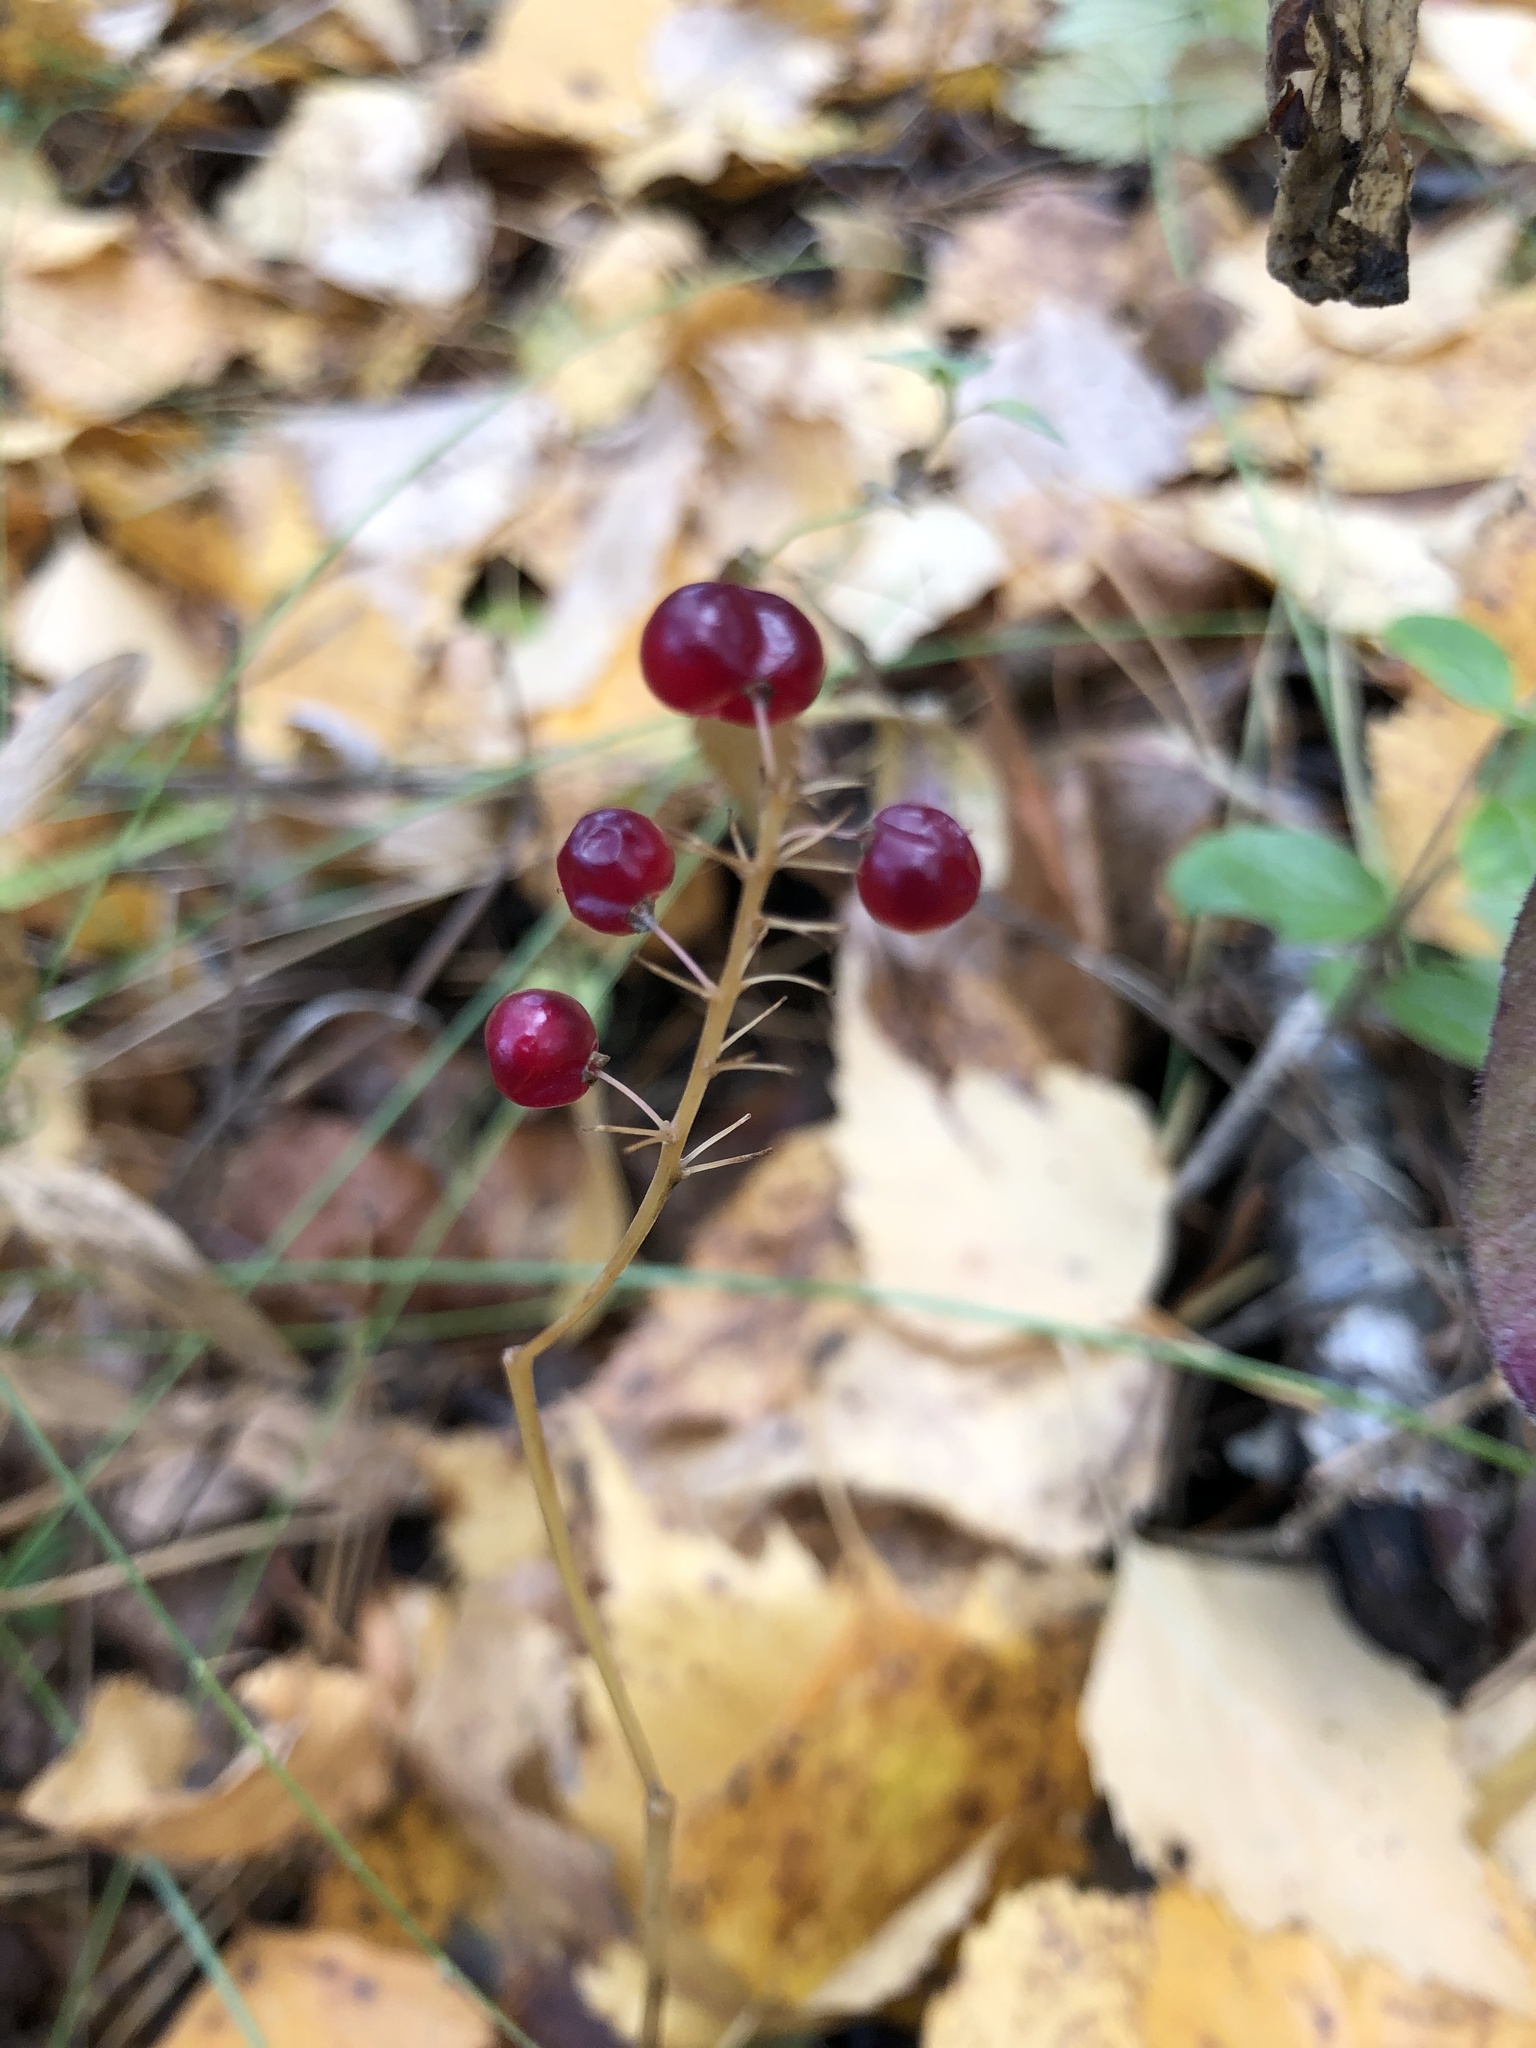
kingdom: Plantae
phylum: Tracheophyta
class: Liliopsida
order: Asparagales
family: Asparagaceae
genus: Maianthemum
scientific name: Maianthemum bifolium
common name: May lily
